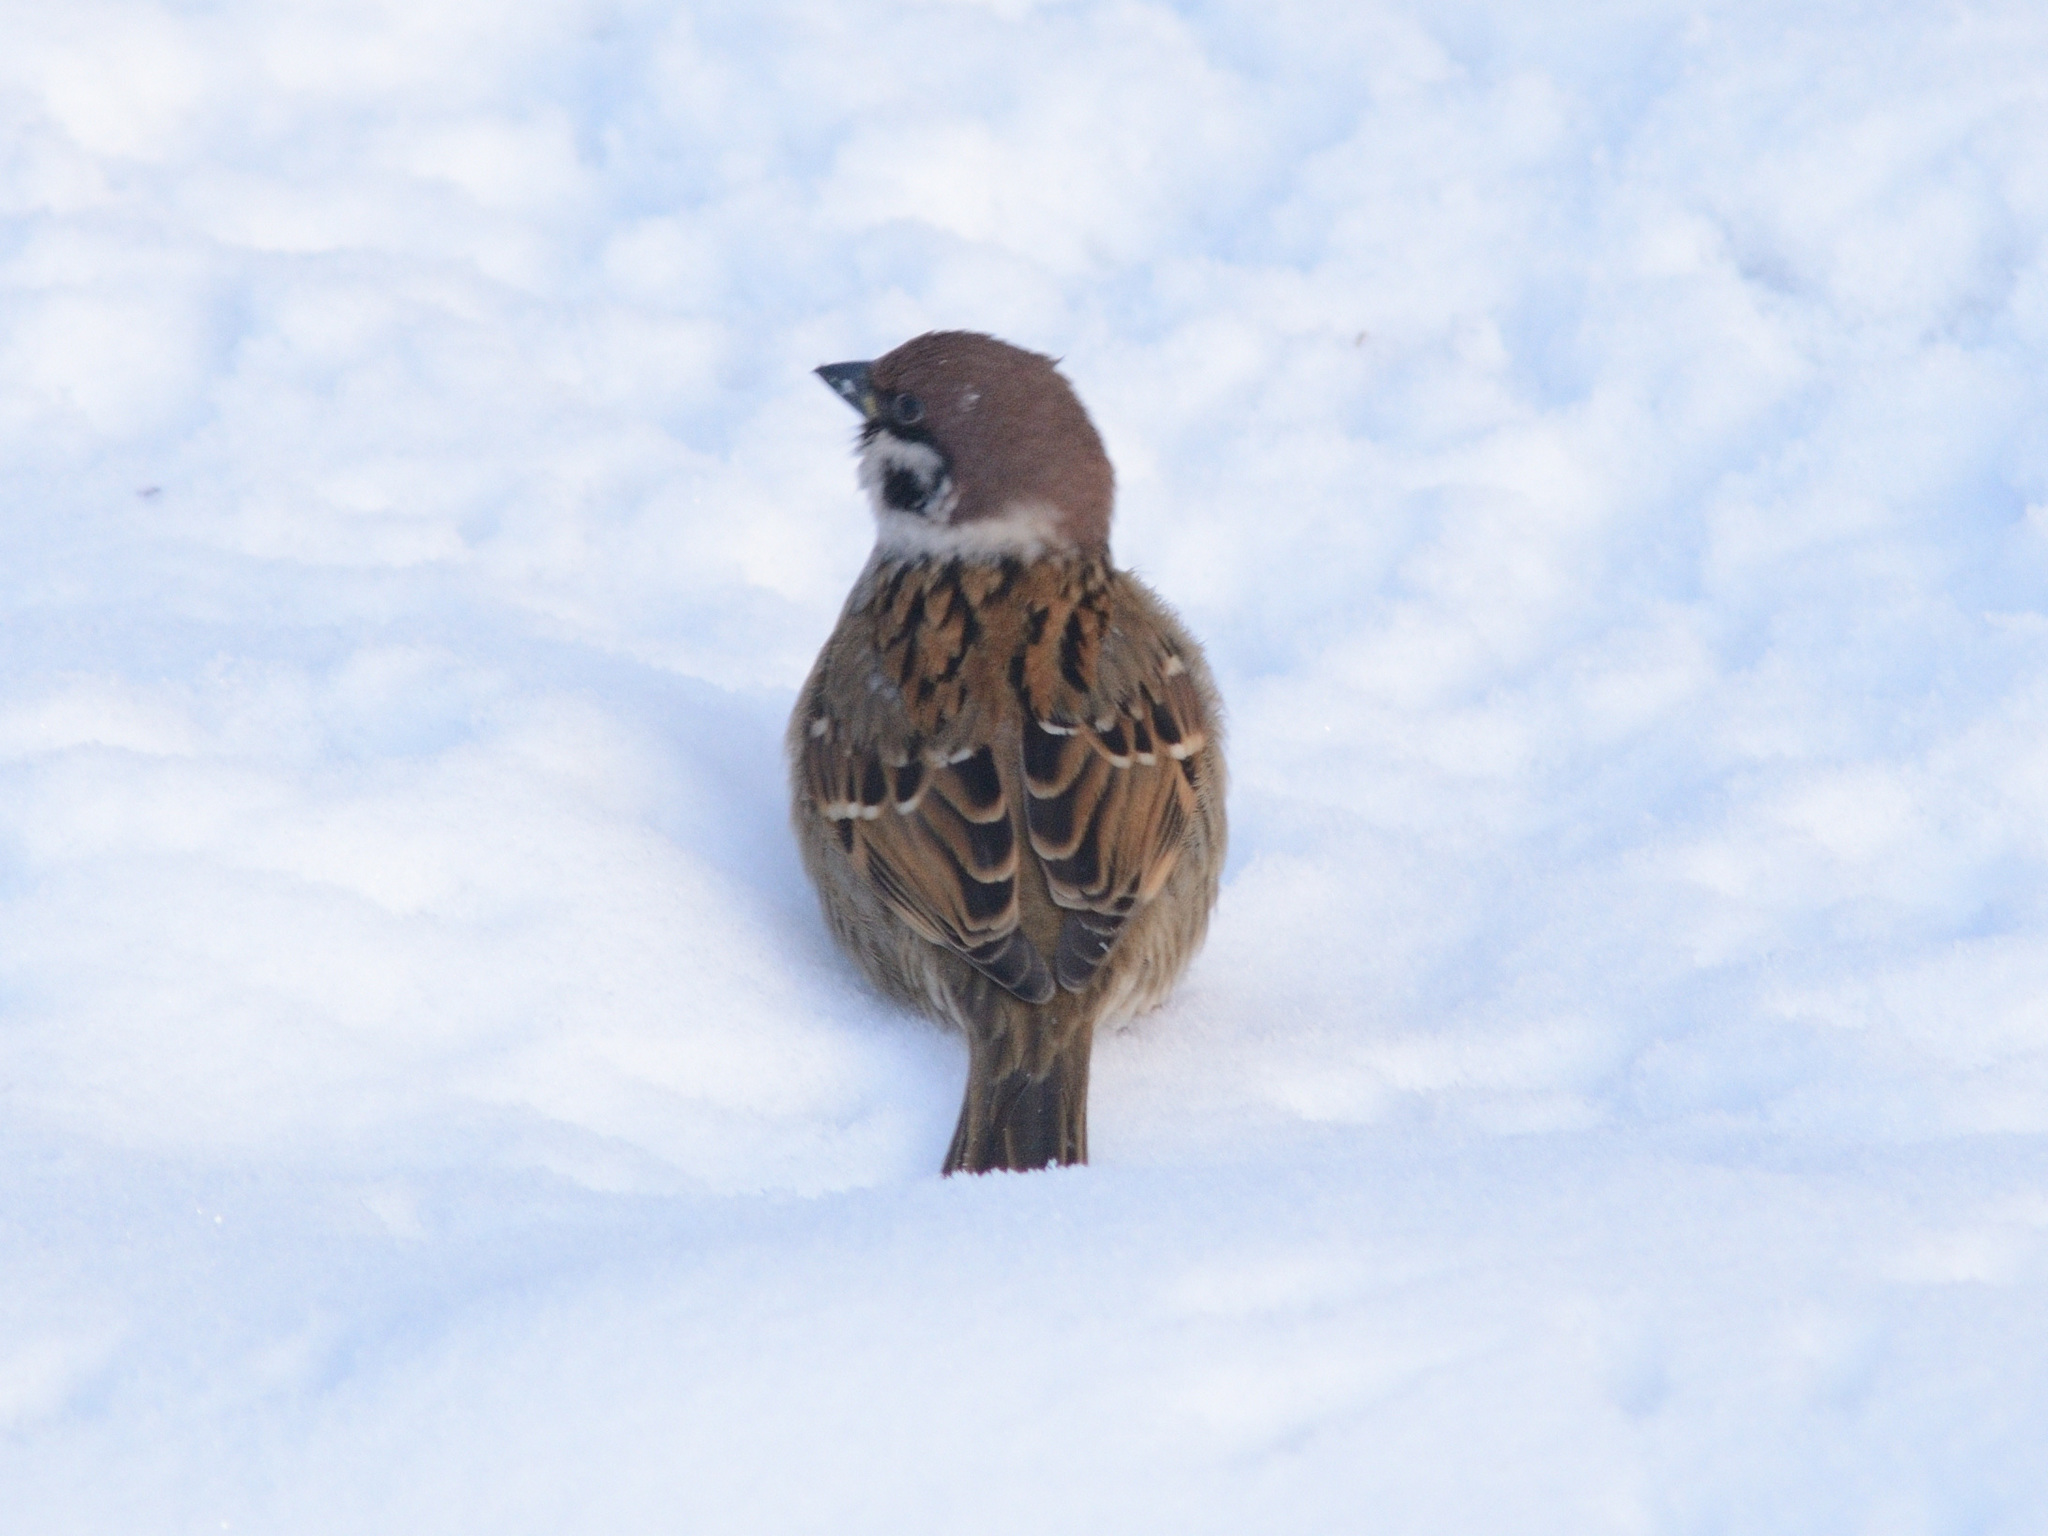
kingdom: Animalia
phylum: Chordata
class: Aves
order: Passeriformes
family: Passeridae
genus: Passer
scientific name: Passer montanus
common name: Eurasian tree sparrow
